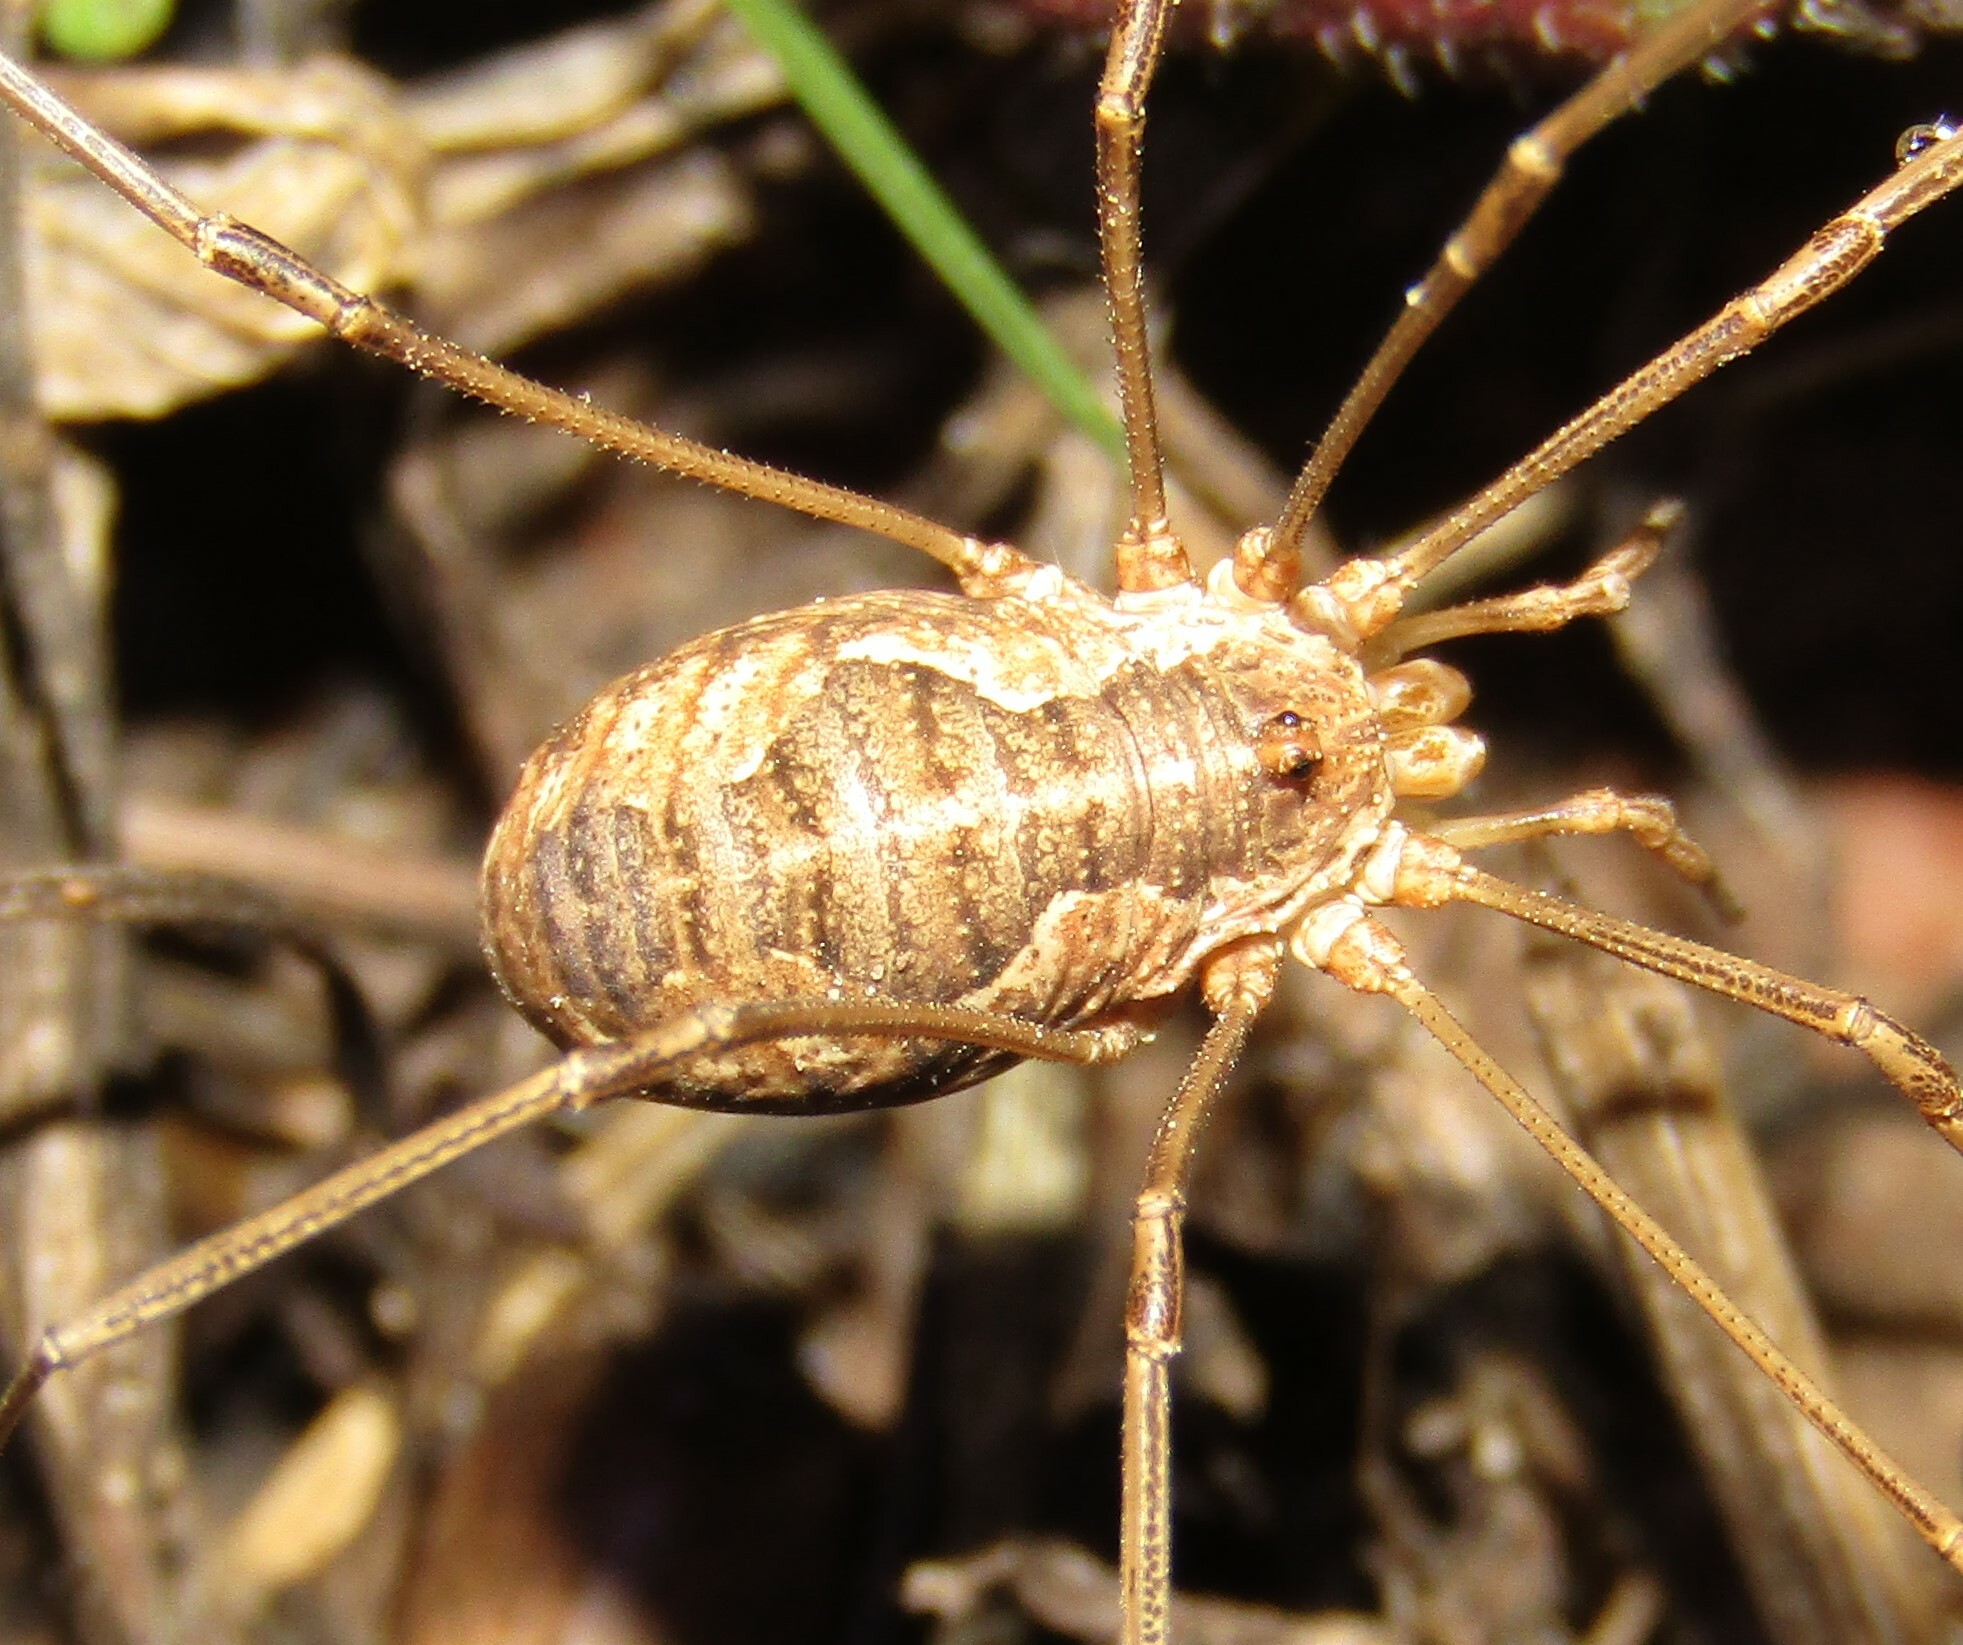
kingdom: Animalia
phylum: Arthropoda
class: Arachnida
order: Opiliones
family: Phalangiidae
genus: Phalangium
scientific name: Phalangium opilio
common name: Daddy longleg
